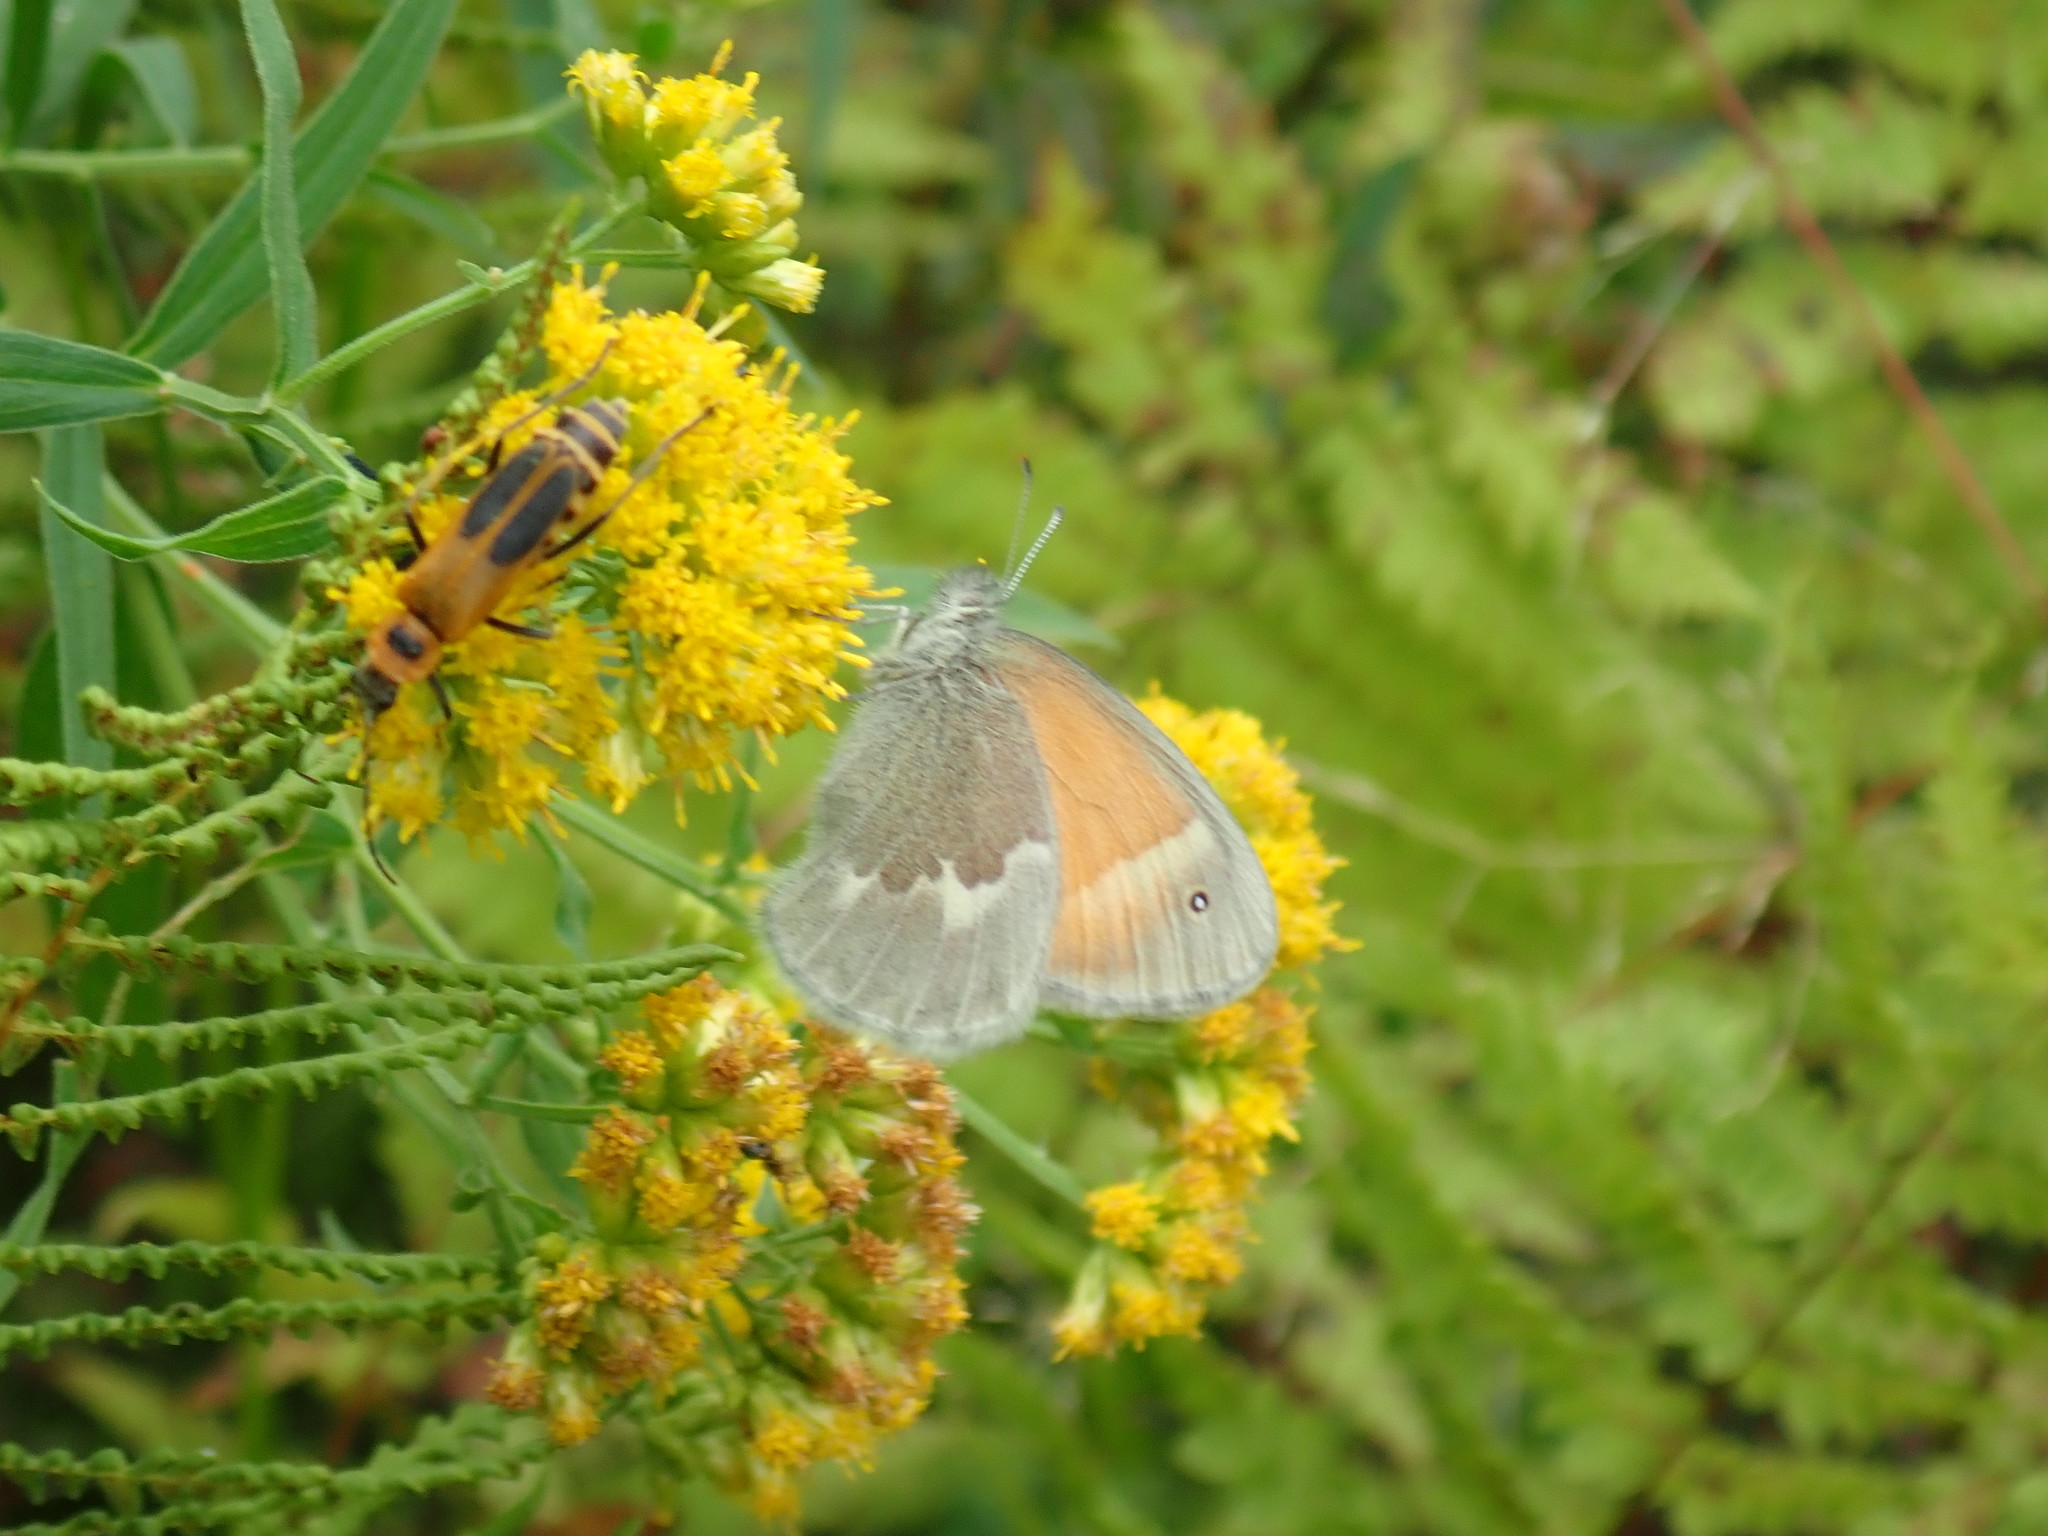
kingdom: Animalia
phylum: Arthropoda
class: Insecta
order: Lepidoptera
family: Nymphalidae
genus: Coenonympha
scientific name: Coenonympha california
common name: Common ringlet
